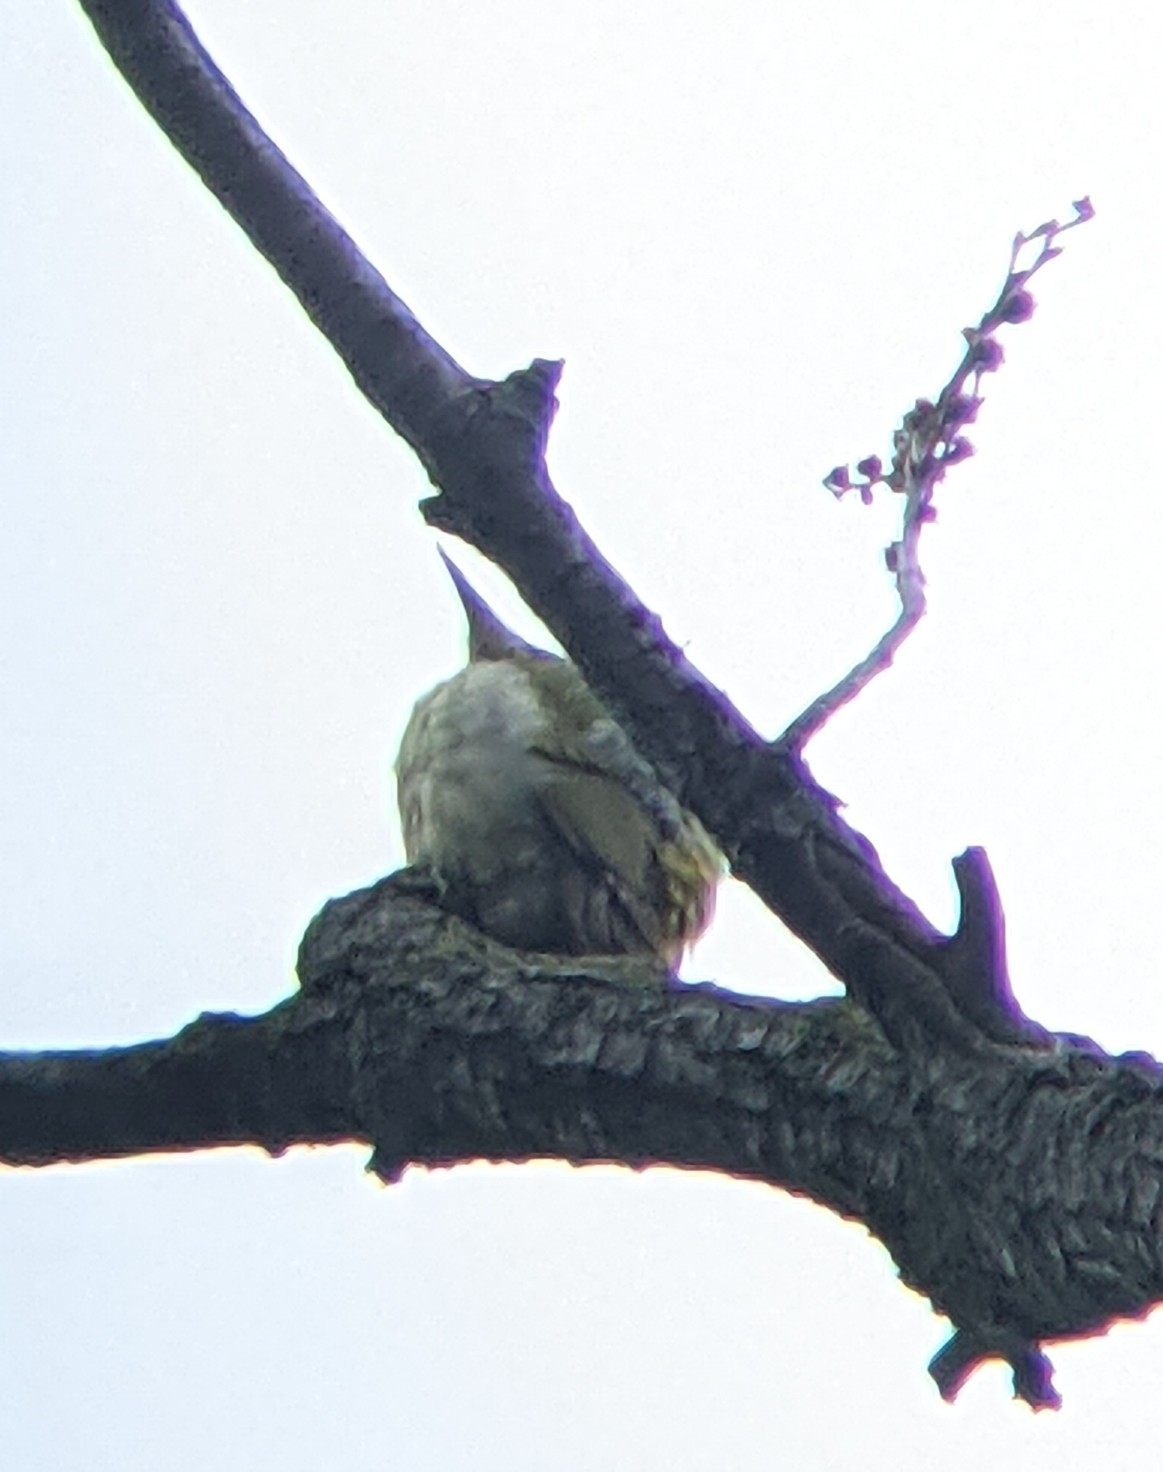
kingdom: Animalia
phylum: Chordata
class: Aves
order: Piciformes
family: Picidae
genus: Picus
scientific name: Picus viridis
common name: European green woodpecker
